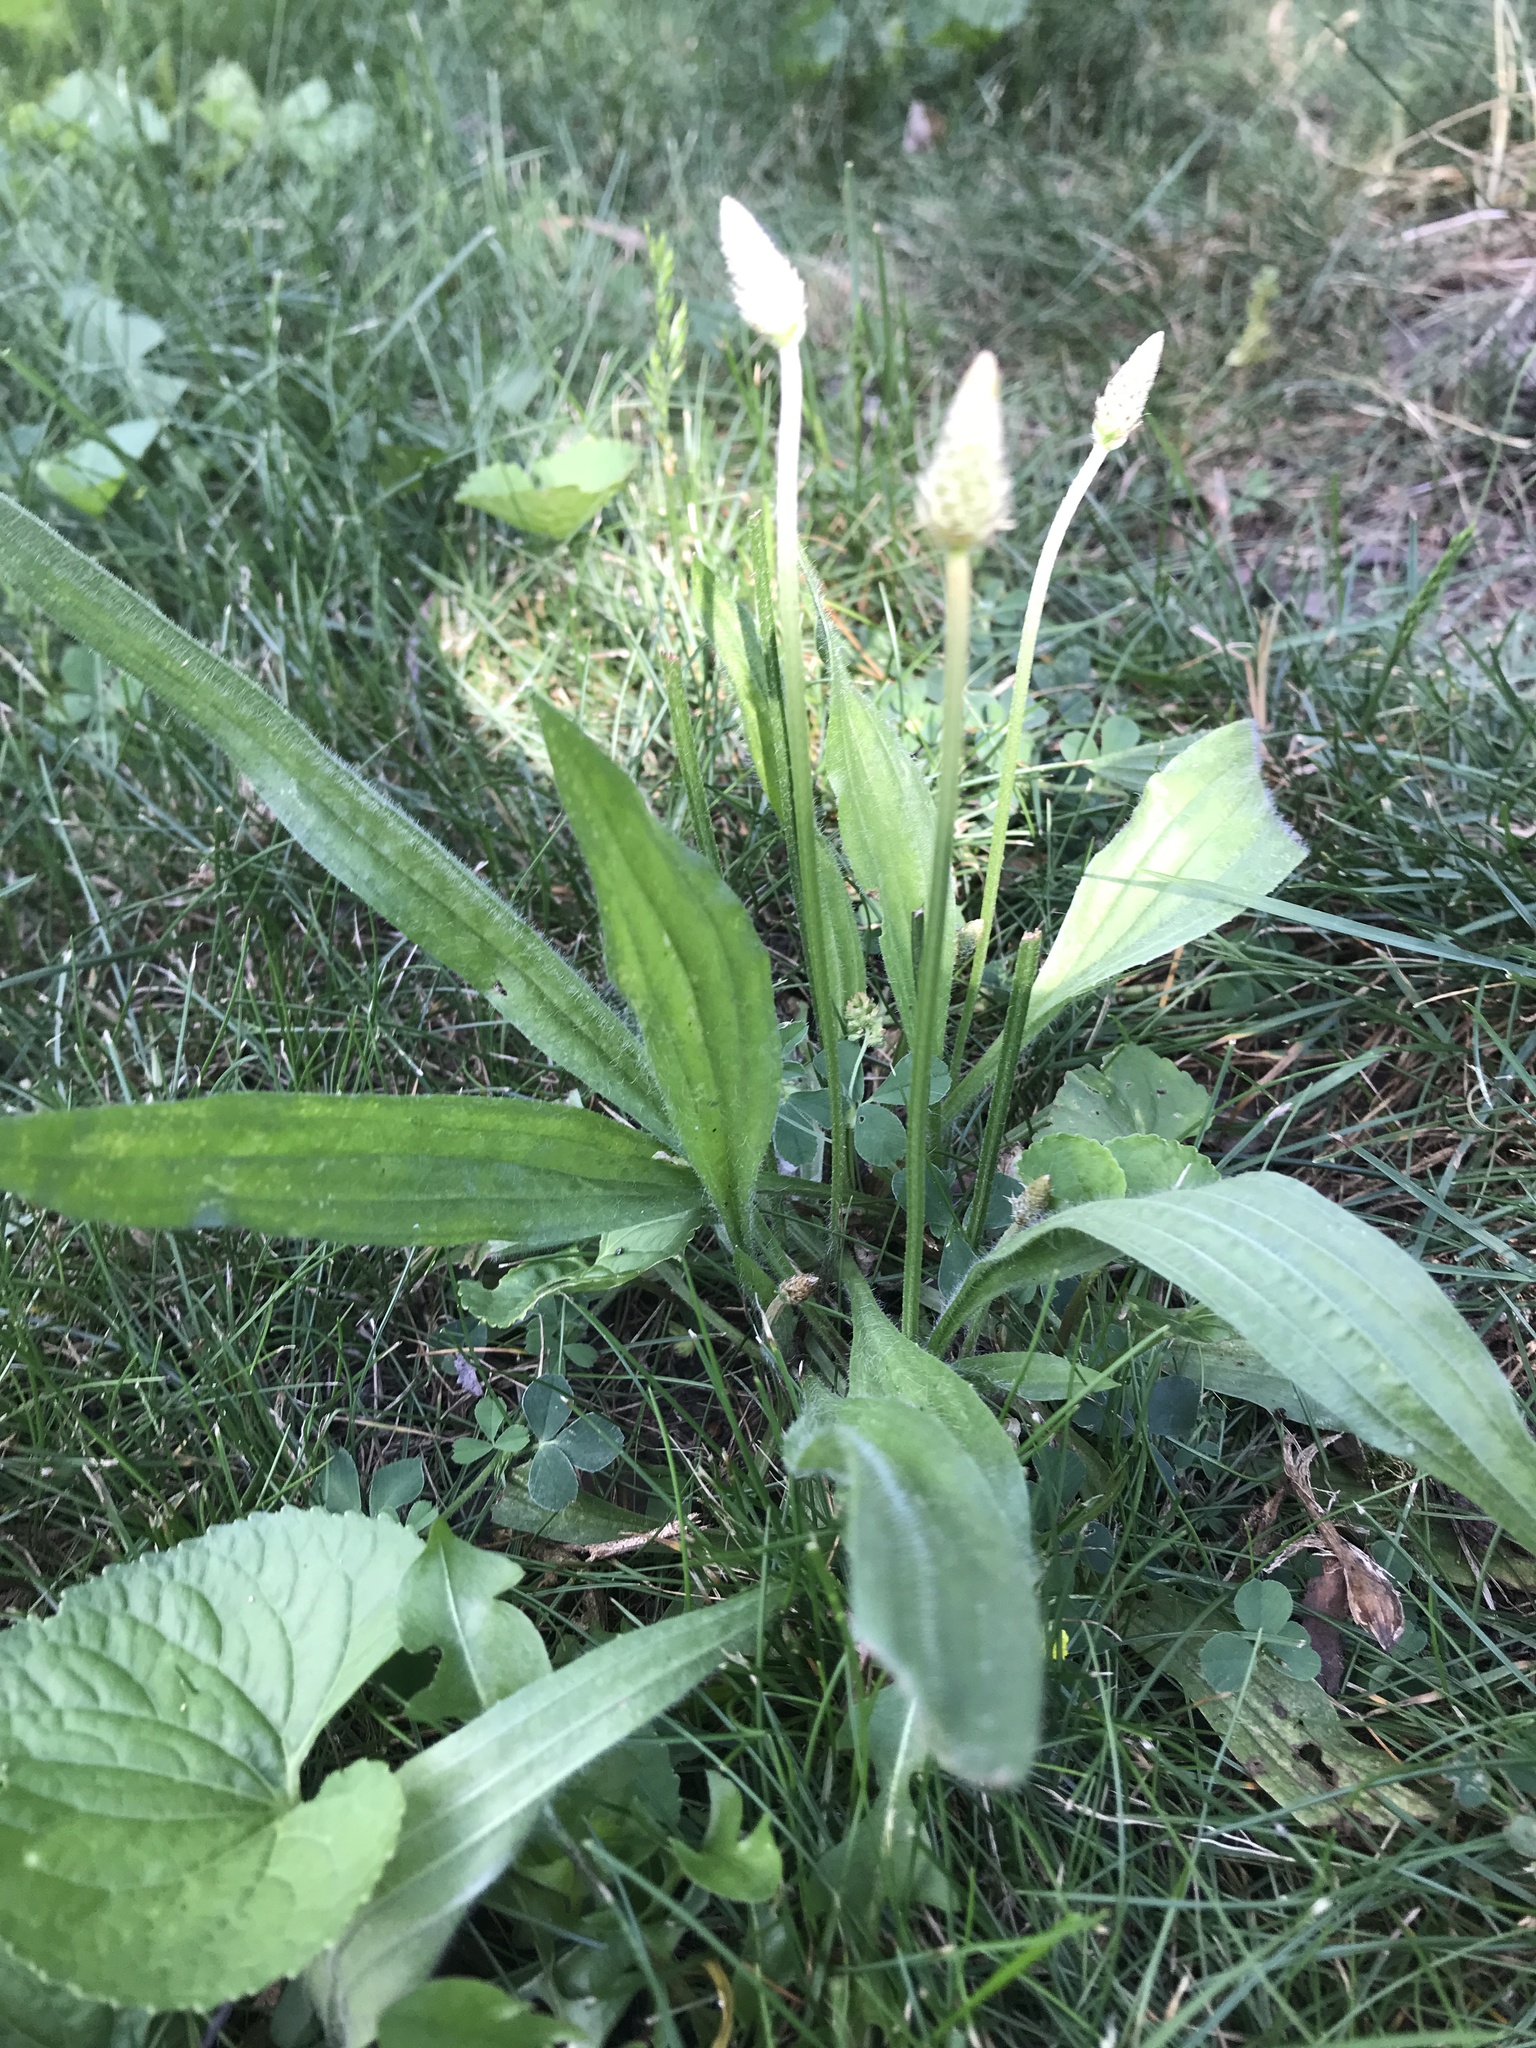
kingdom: Plantae
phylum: Tracheophyta
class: Magnoliopsida
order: Lamiales
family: Plantaginaceae
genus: Plantago
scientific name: Plantago lanceolata
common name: Ribwort plantain
